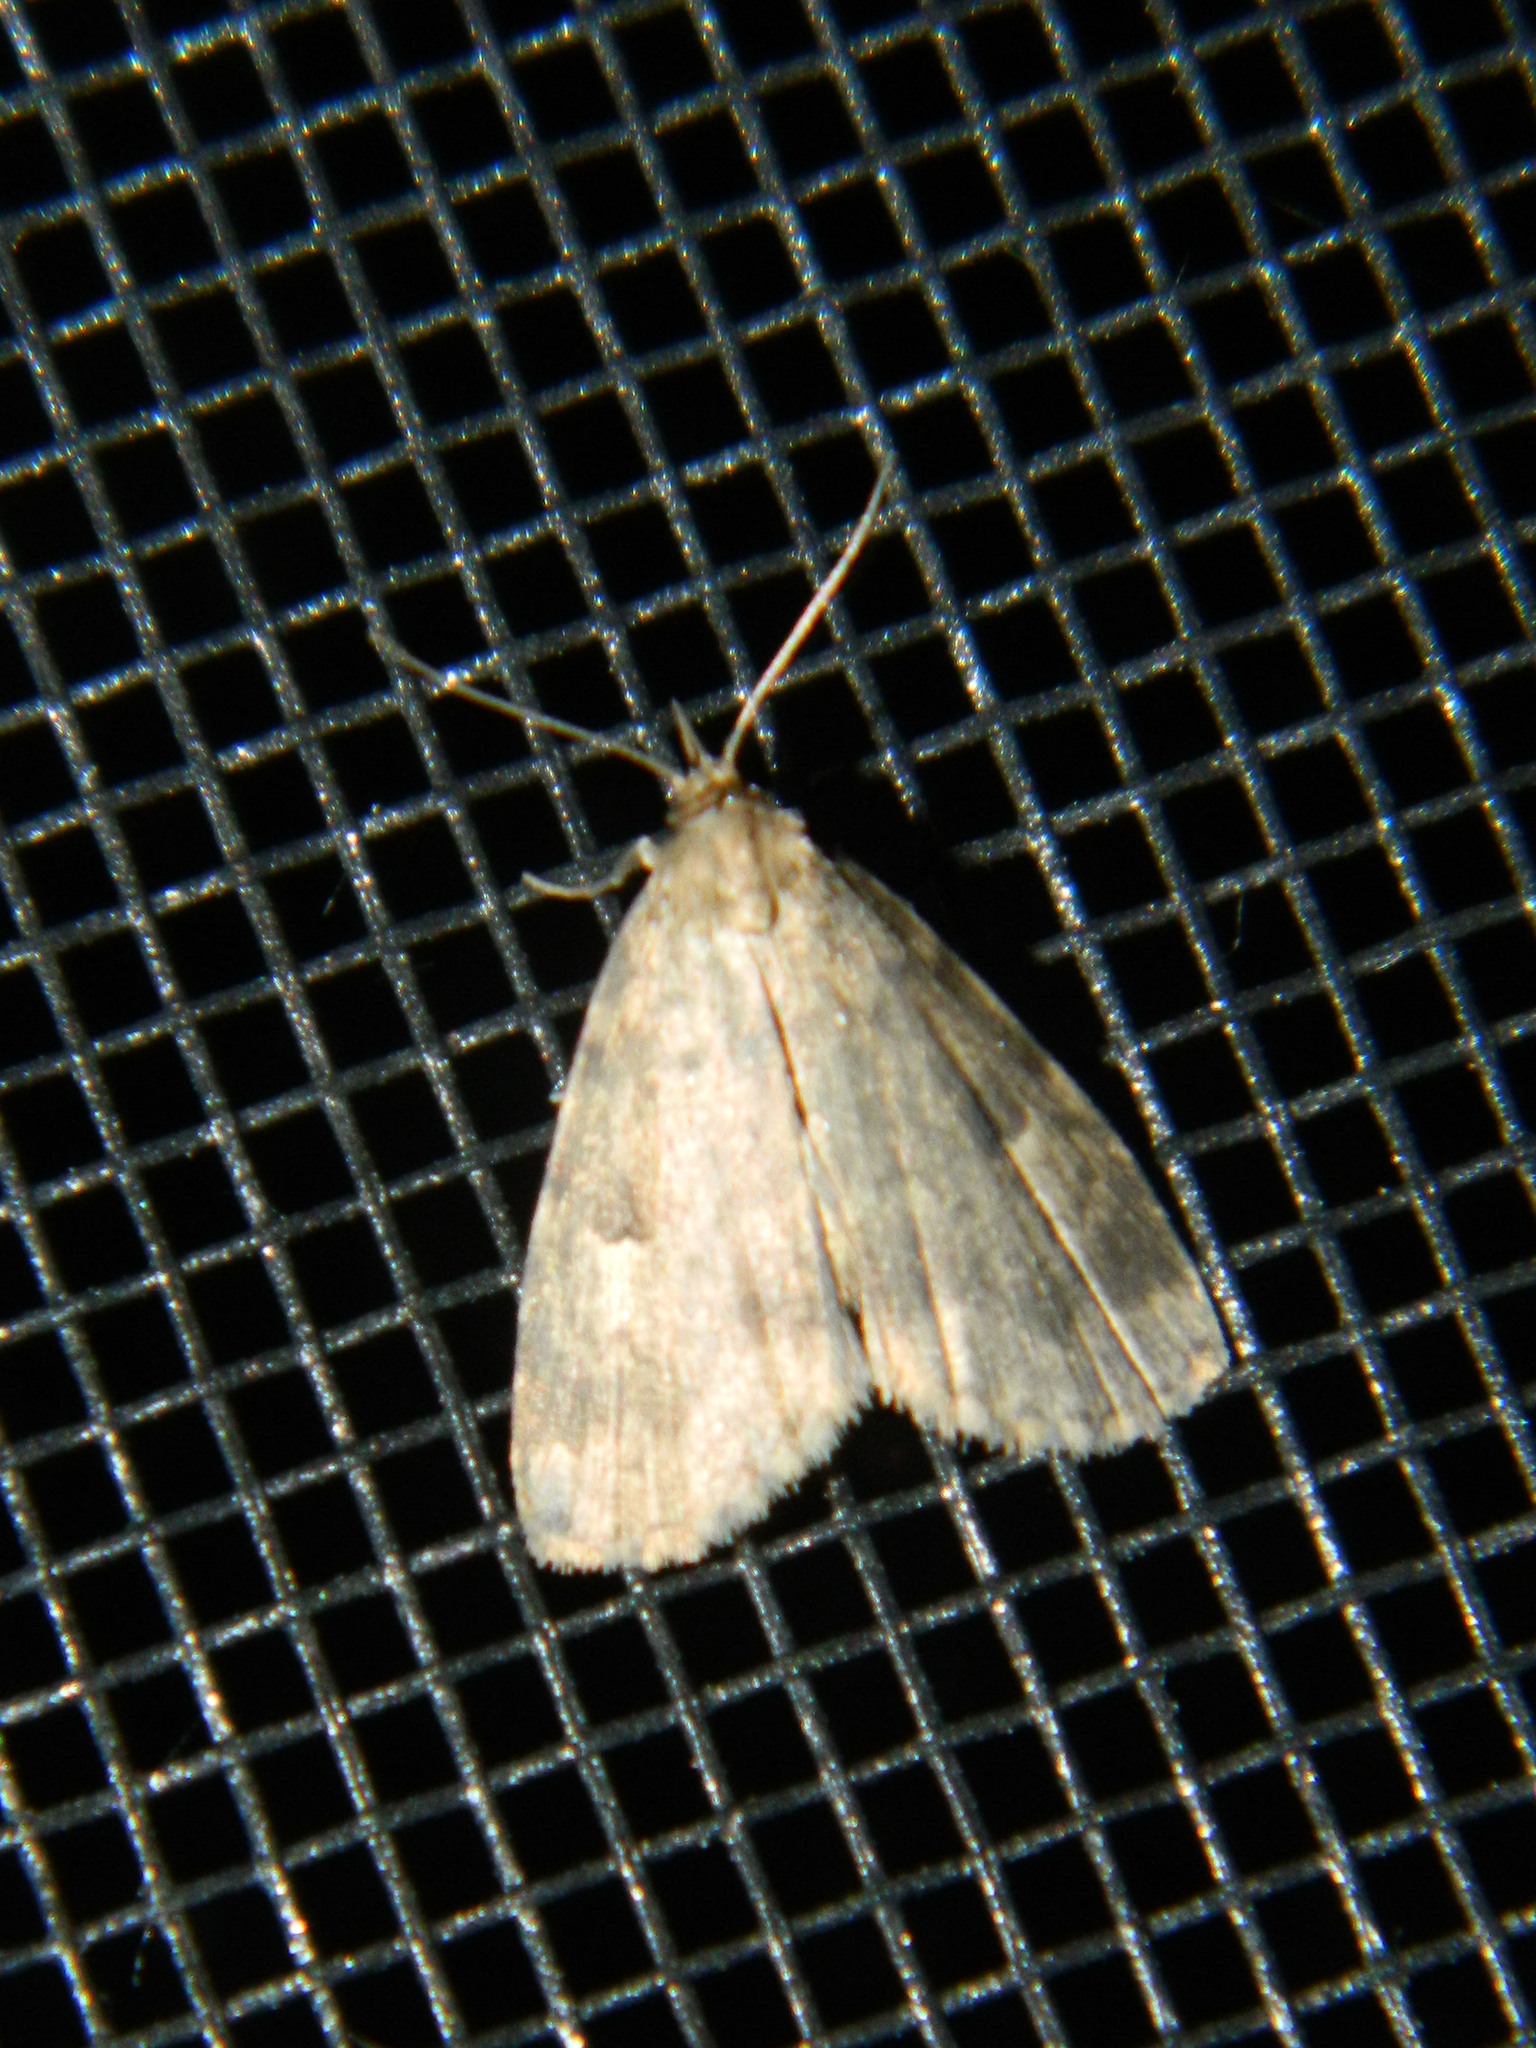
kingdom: Animalia
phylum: Arthropoda
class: Insecta
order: Lepidoptera
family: Erebidae
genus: Paradelta
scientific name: Paradelta Parahypenodes quadralis
